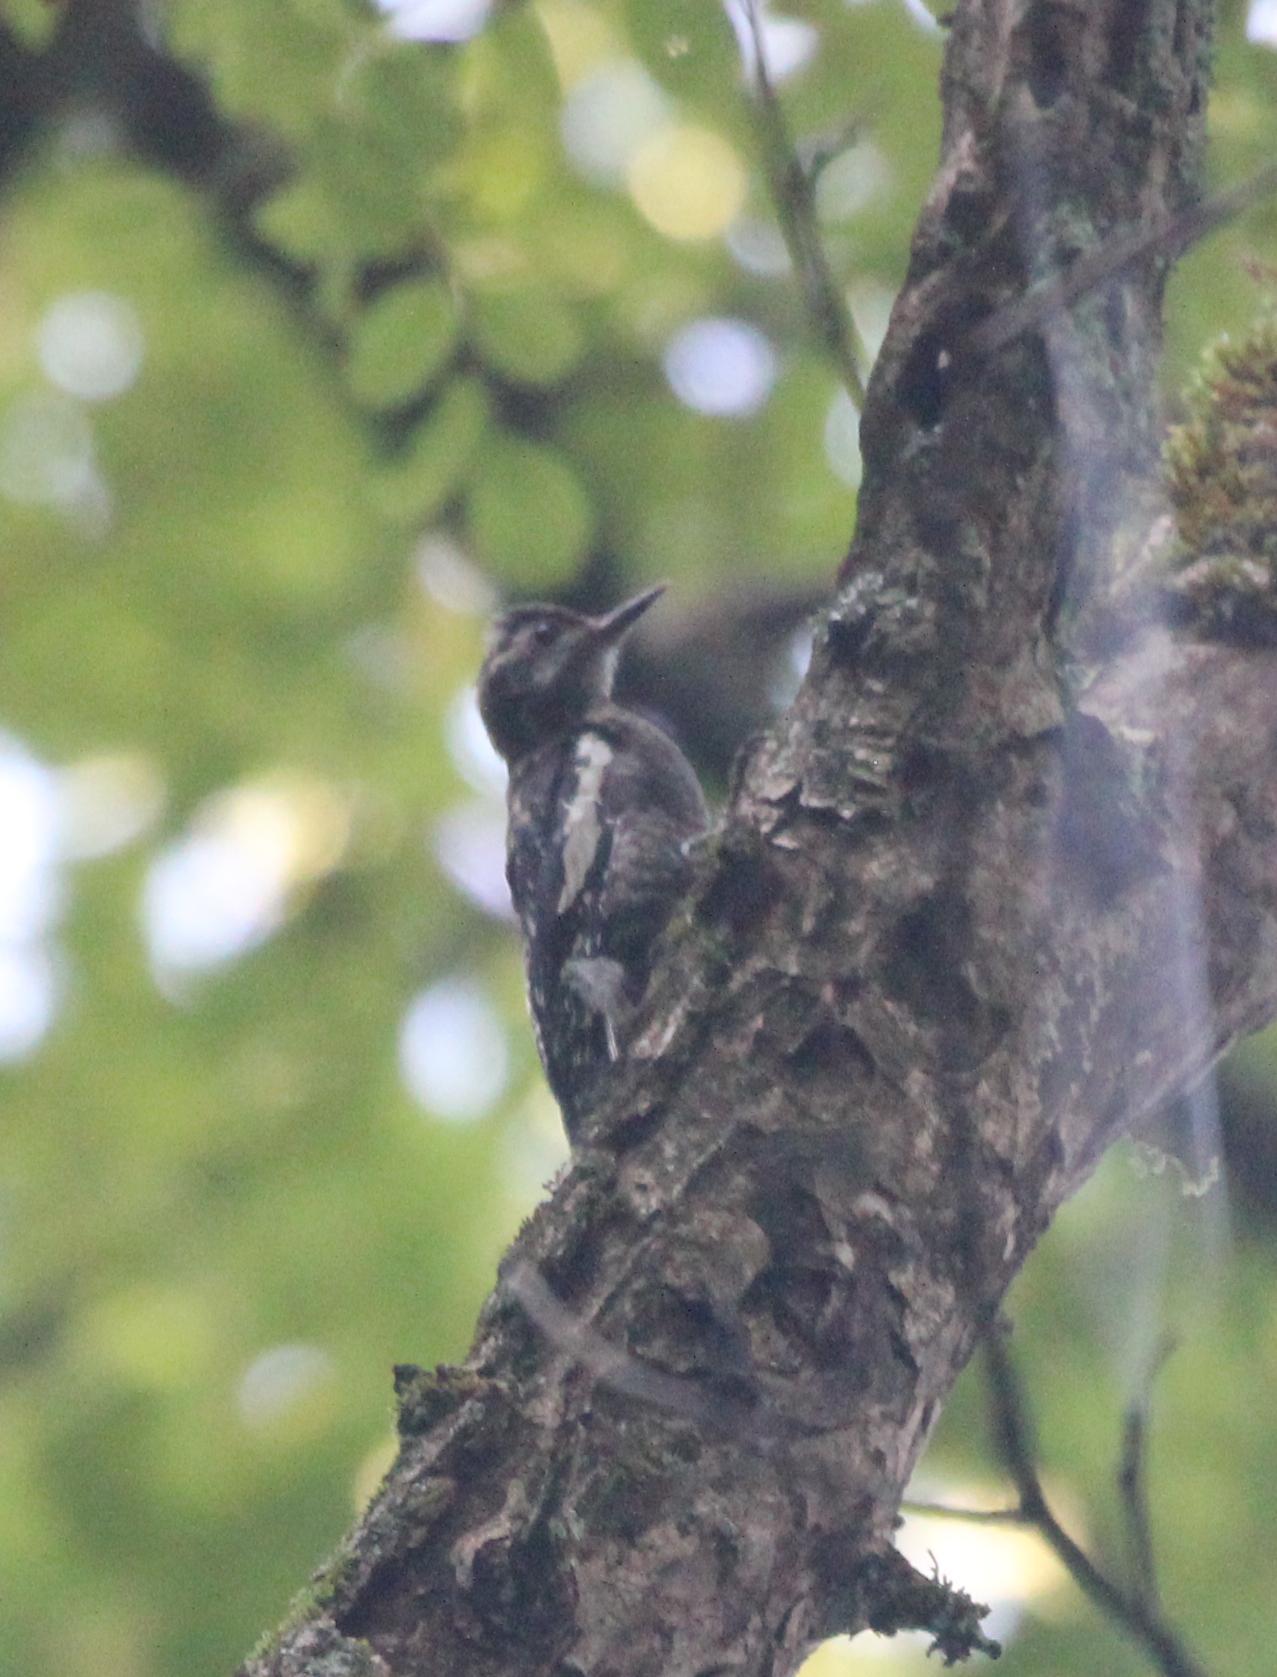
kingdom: Animalia
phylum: Chordata
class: Aves
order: Piciformes
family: Picidae
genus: Sphyrapicus
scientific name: Sphyrapicus varius
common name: Yellow-bellied sapsucker
